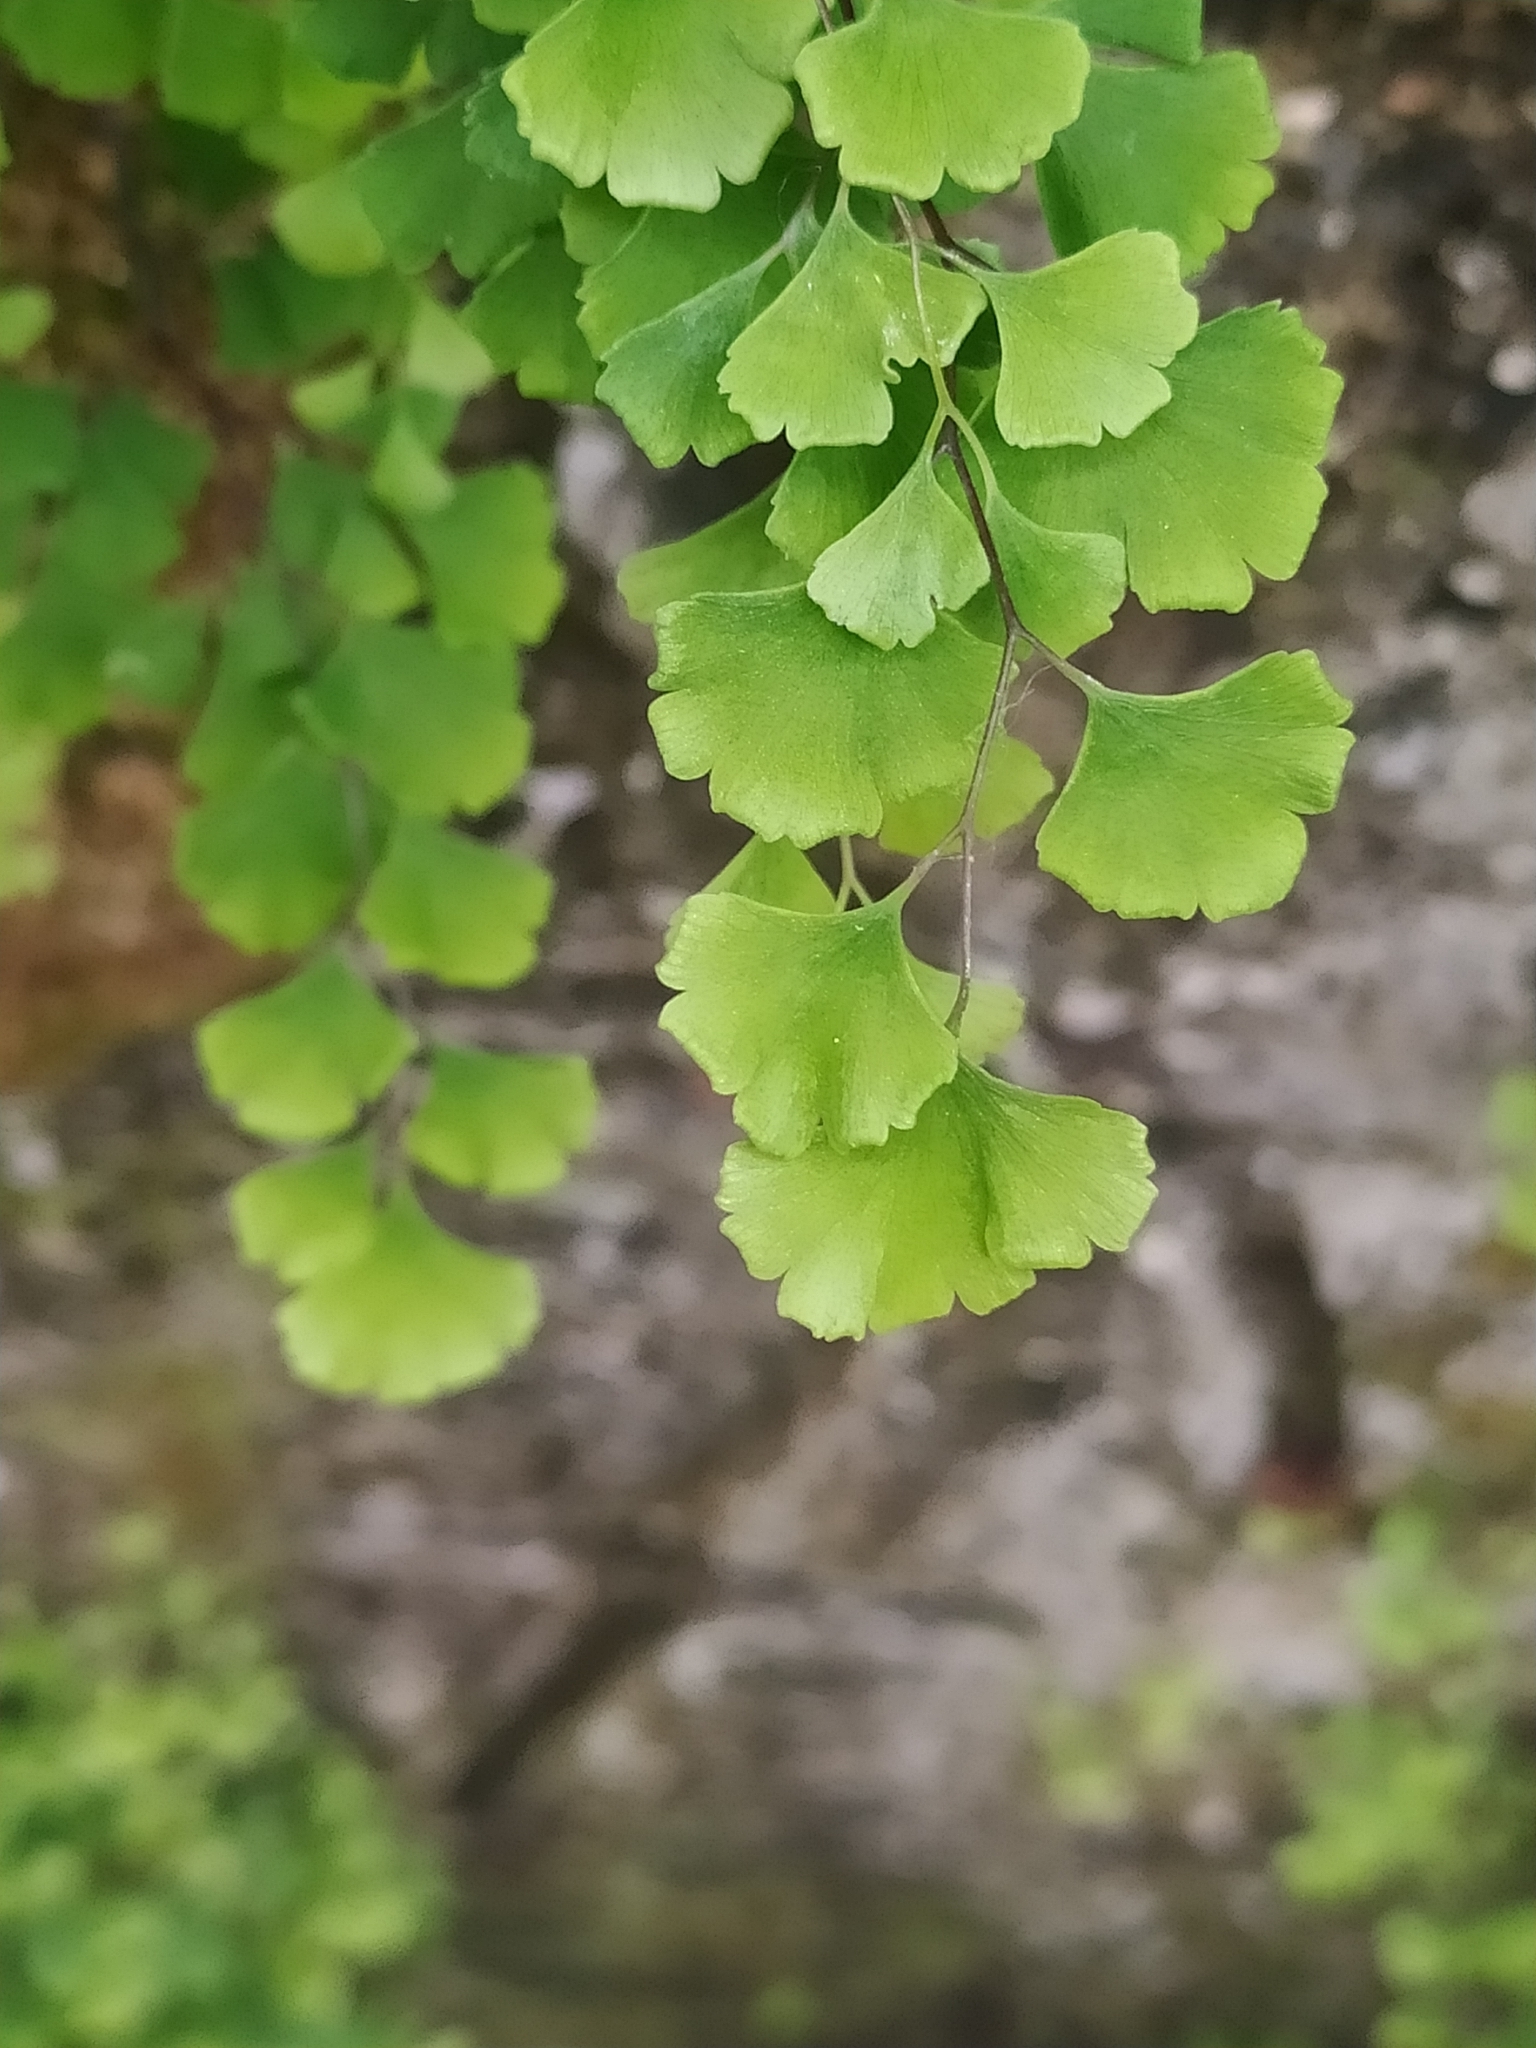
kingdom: Plantae
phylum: Tracheophyta
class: Polypodiopsida
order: Polypodiales
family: Pteridaceae
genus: Adiantum
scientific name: Adiantum capillus-veneris
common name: Maidenhair fern
